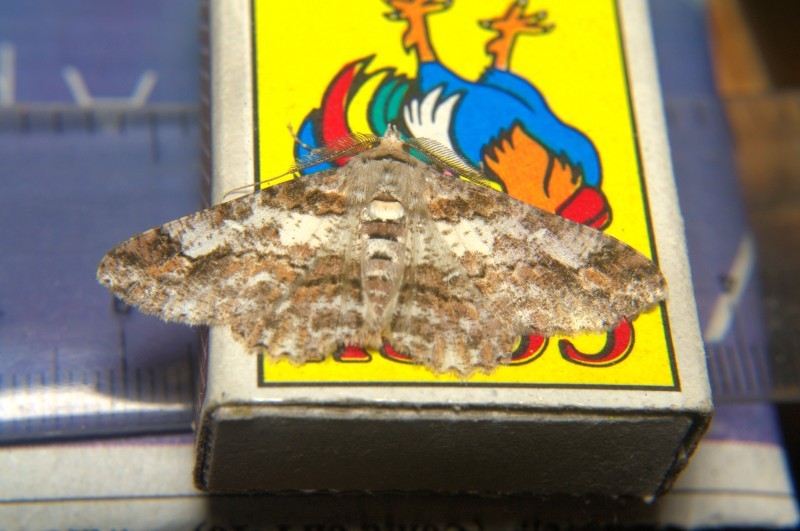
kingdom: Animalia
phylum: Arthropoda
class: Insecta
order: Lepidoptera
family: Geometridae
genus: Cleora
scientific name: Cleora fraterna
